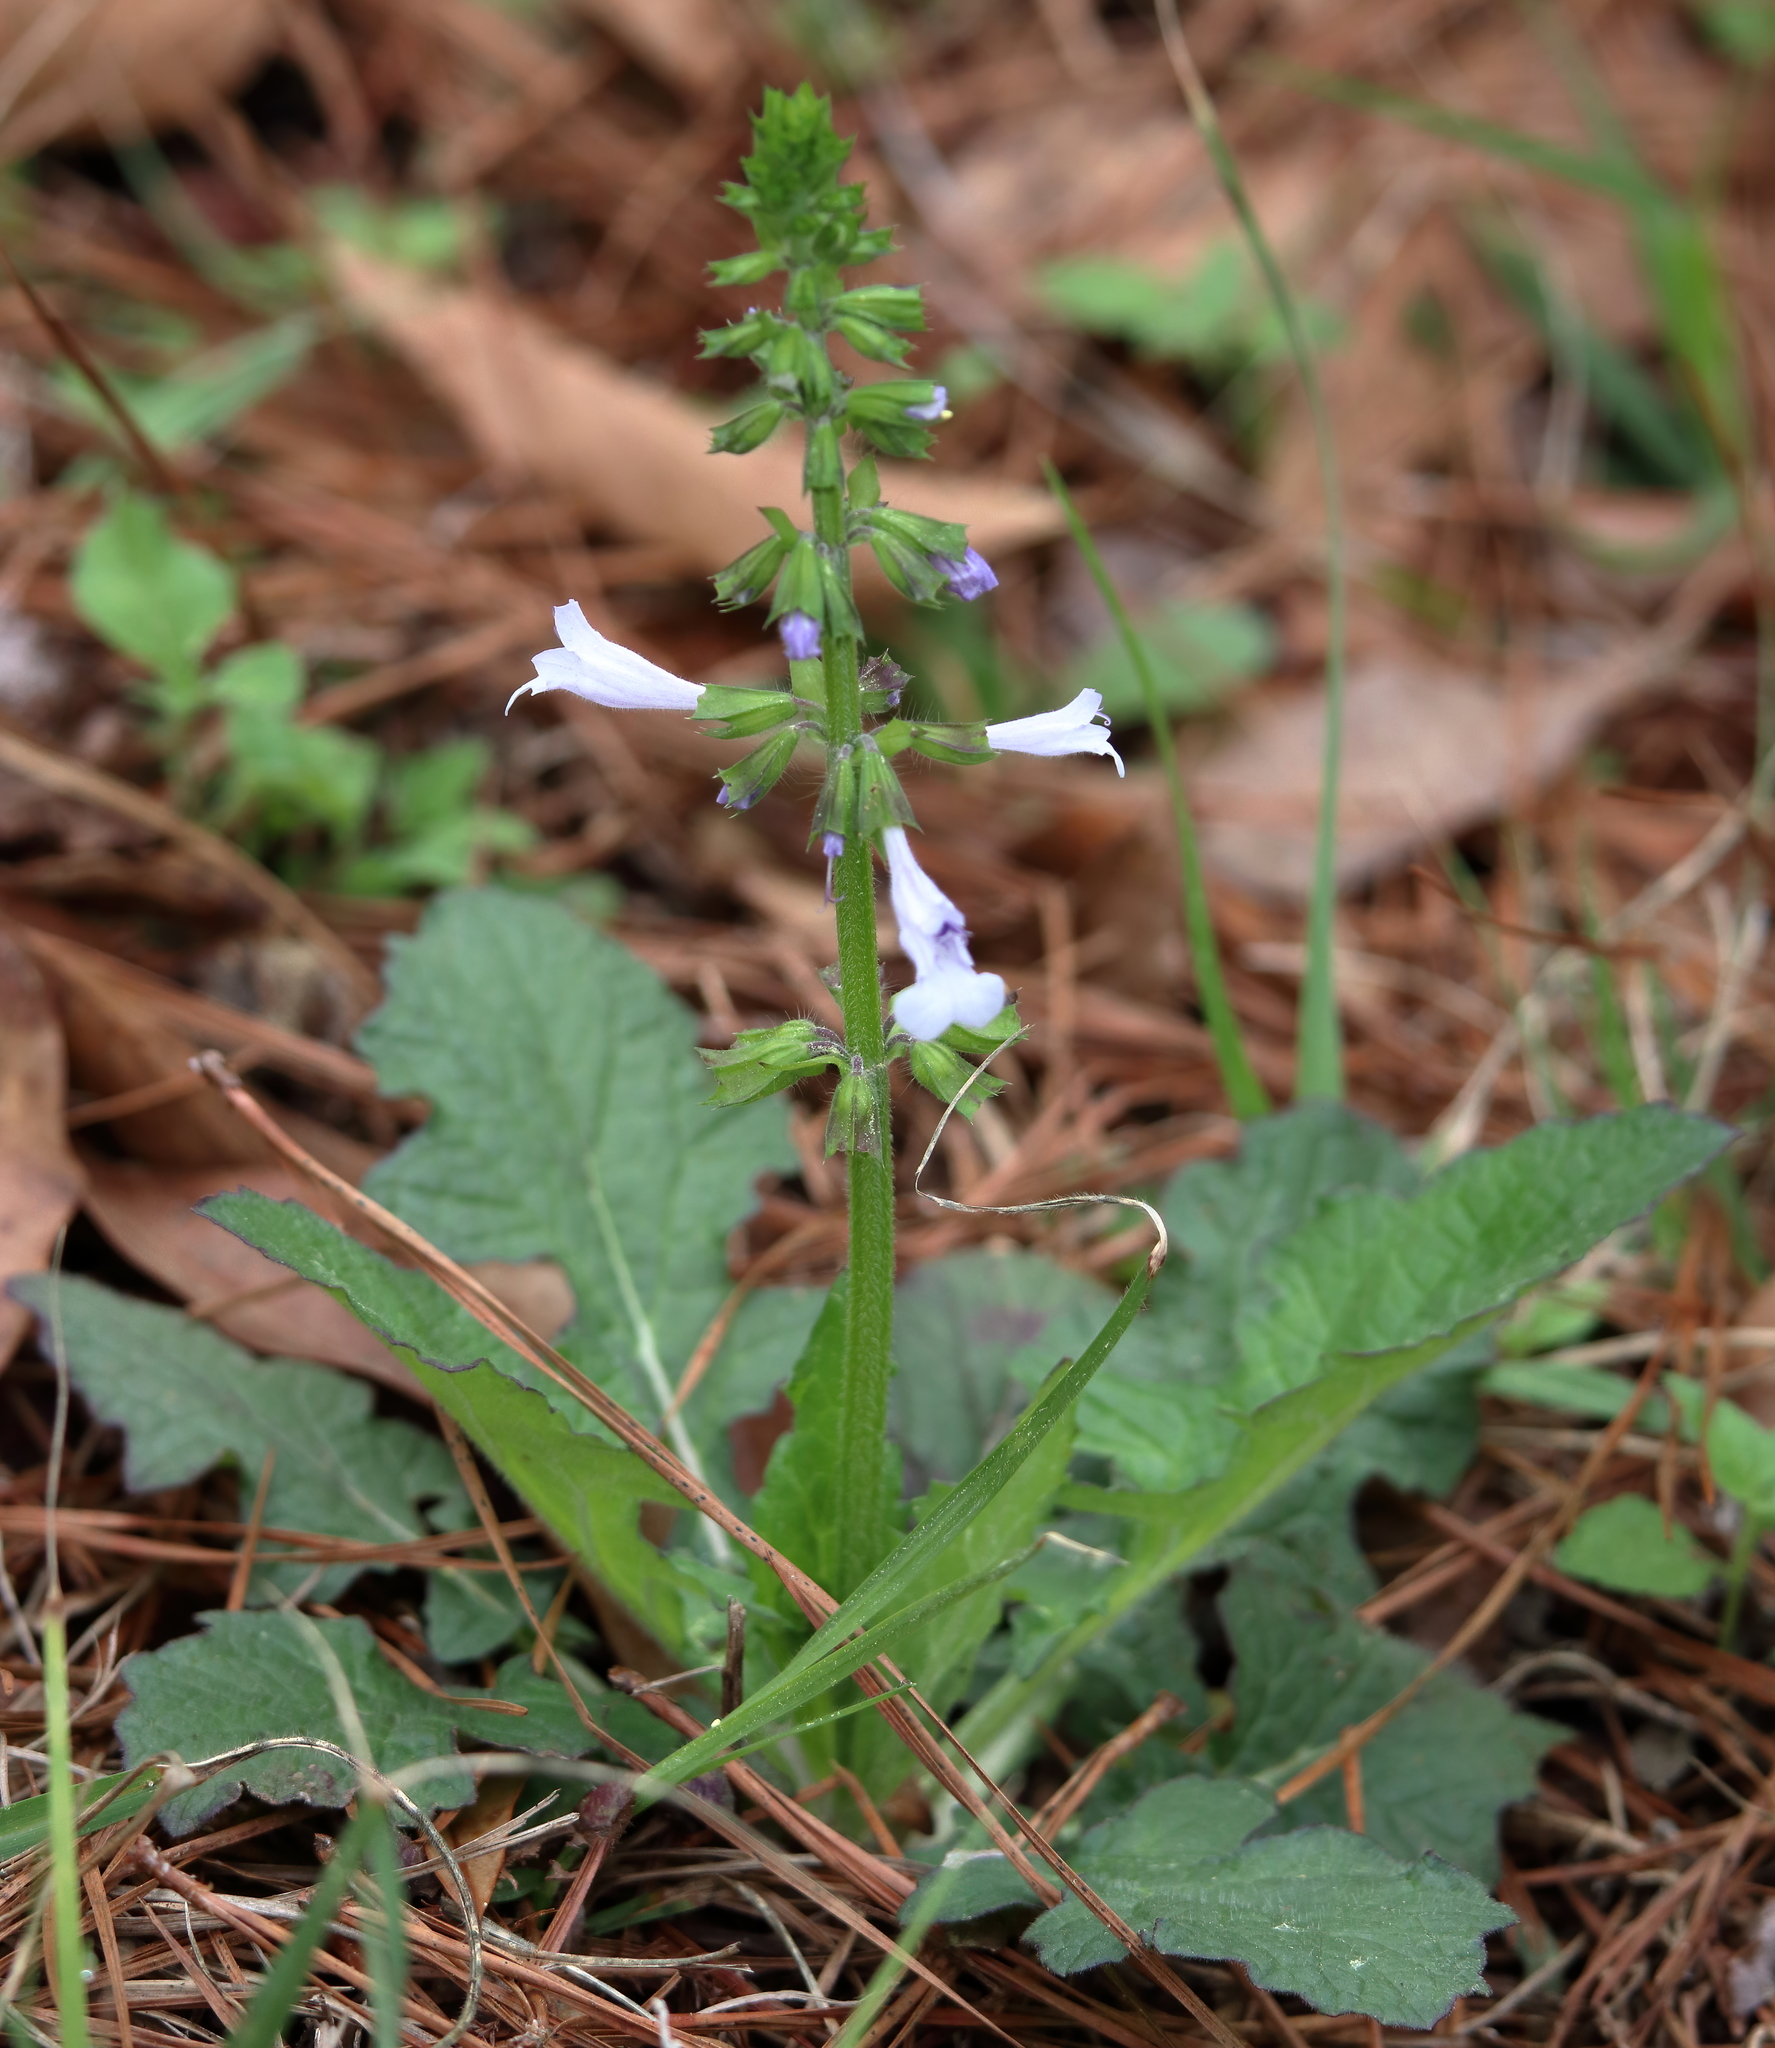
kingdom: Plantae
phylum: Tracheophyta
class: Magnoliopsida
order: Lamiales
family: Lamiaceae
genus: Salvia
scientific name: Salvia lyrata
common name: Cancerweed
